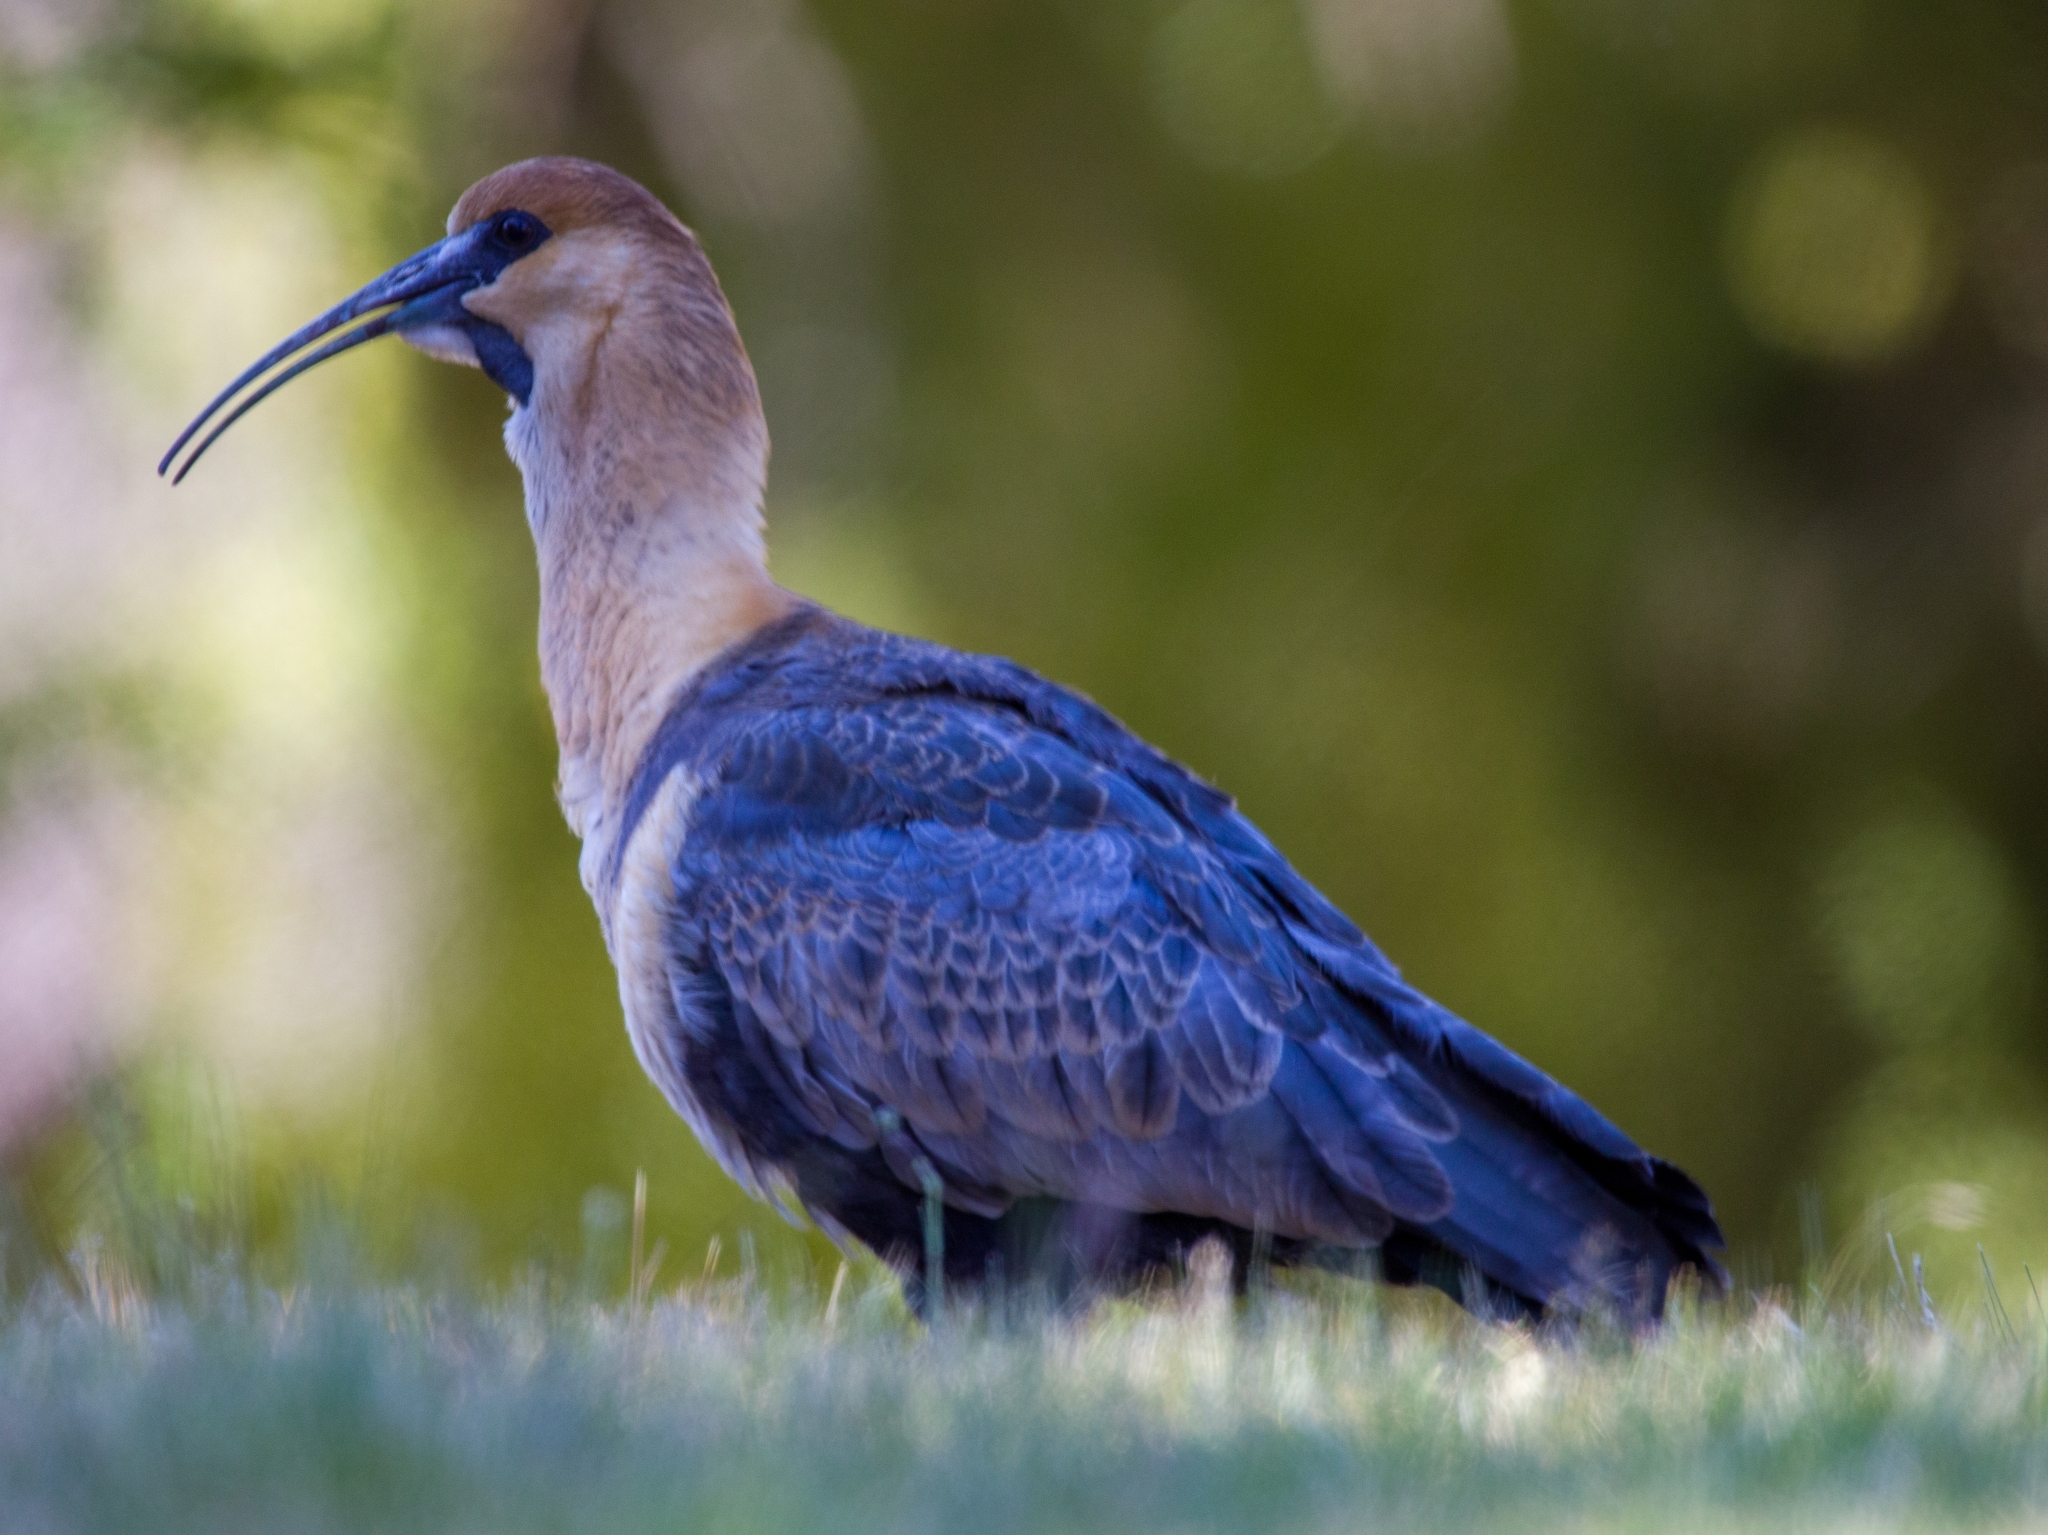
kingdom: Animalia
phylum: Chordata
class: Aves
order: Pelecaniformes
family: Threskiornithidae
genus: Theristicus
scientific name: Theristicus melanopis
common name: Black-faced ibis
